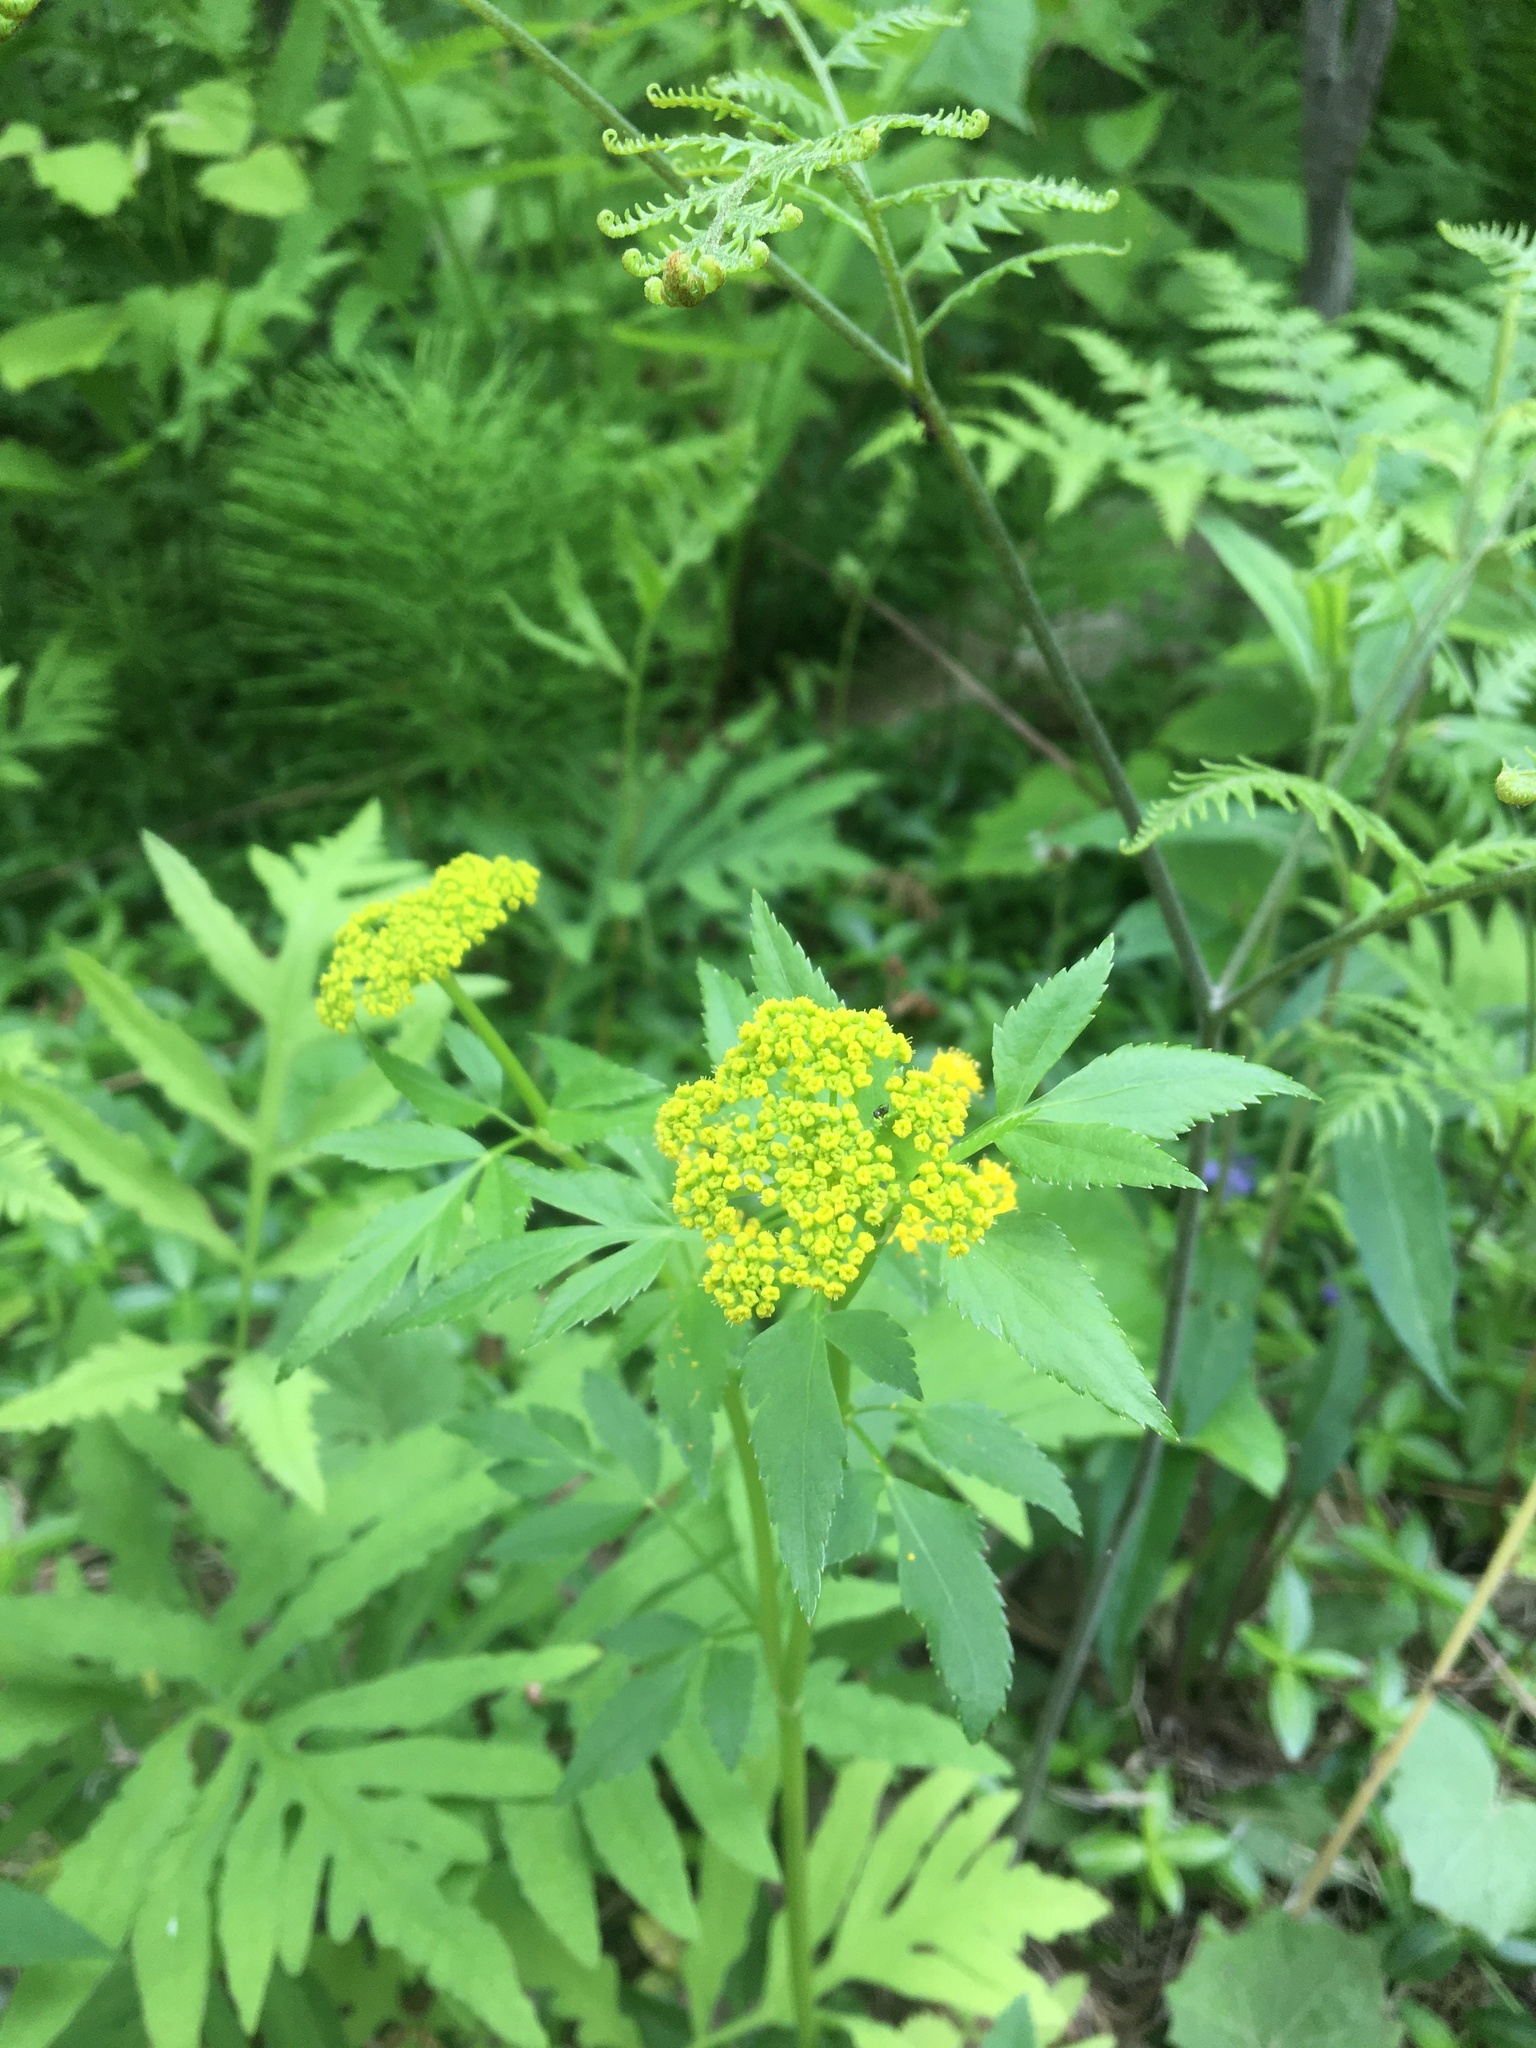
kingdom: Plantae
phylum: Tracheophyta
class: Magnoliopsida
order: Apiales
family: Apiaceae
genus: Zizia
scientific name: Zizia aurea
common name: Golden alexanders
